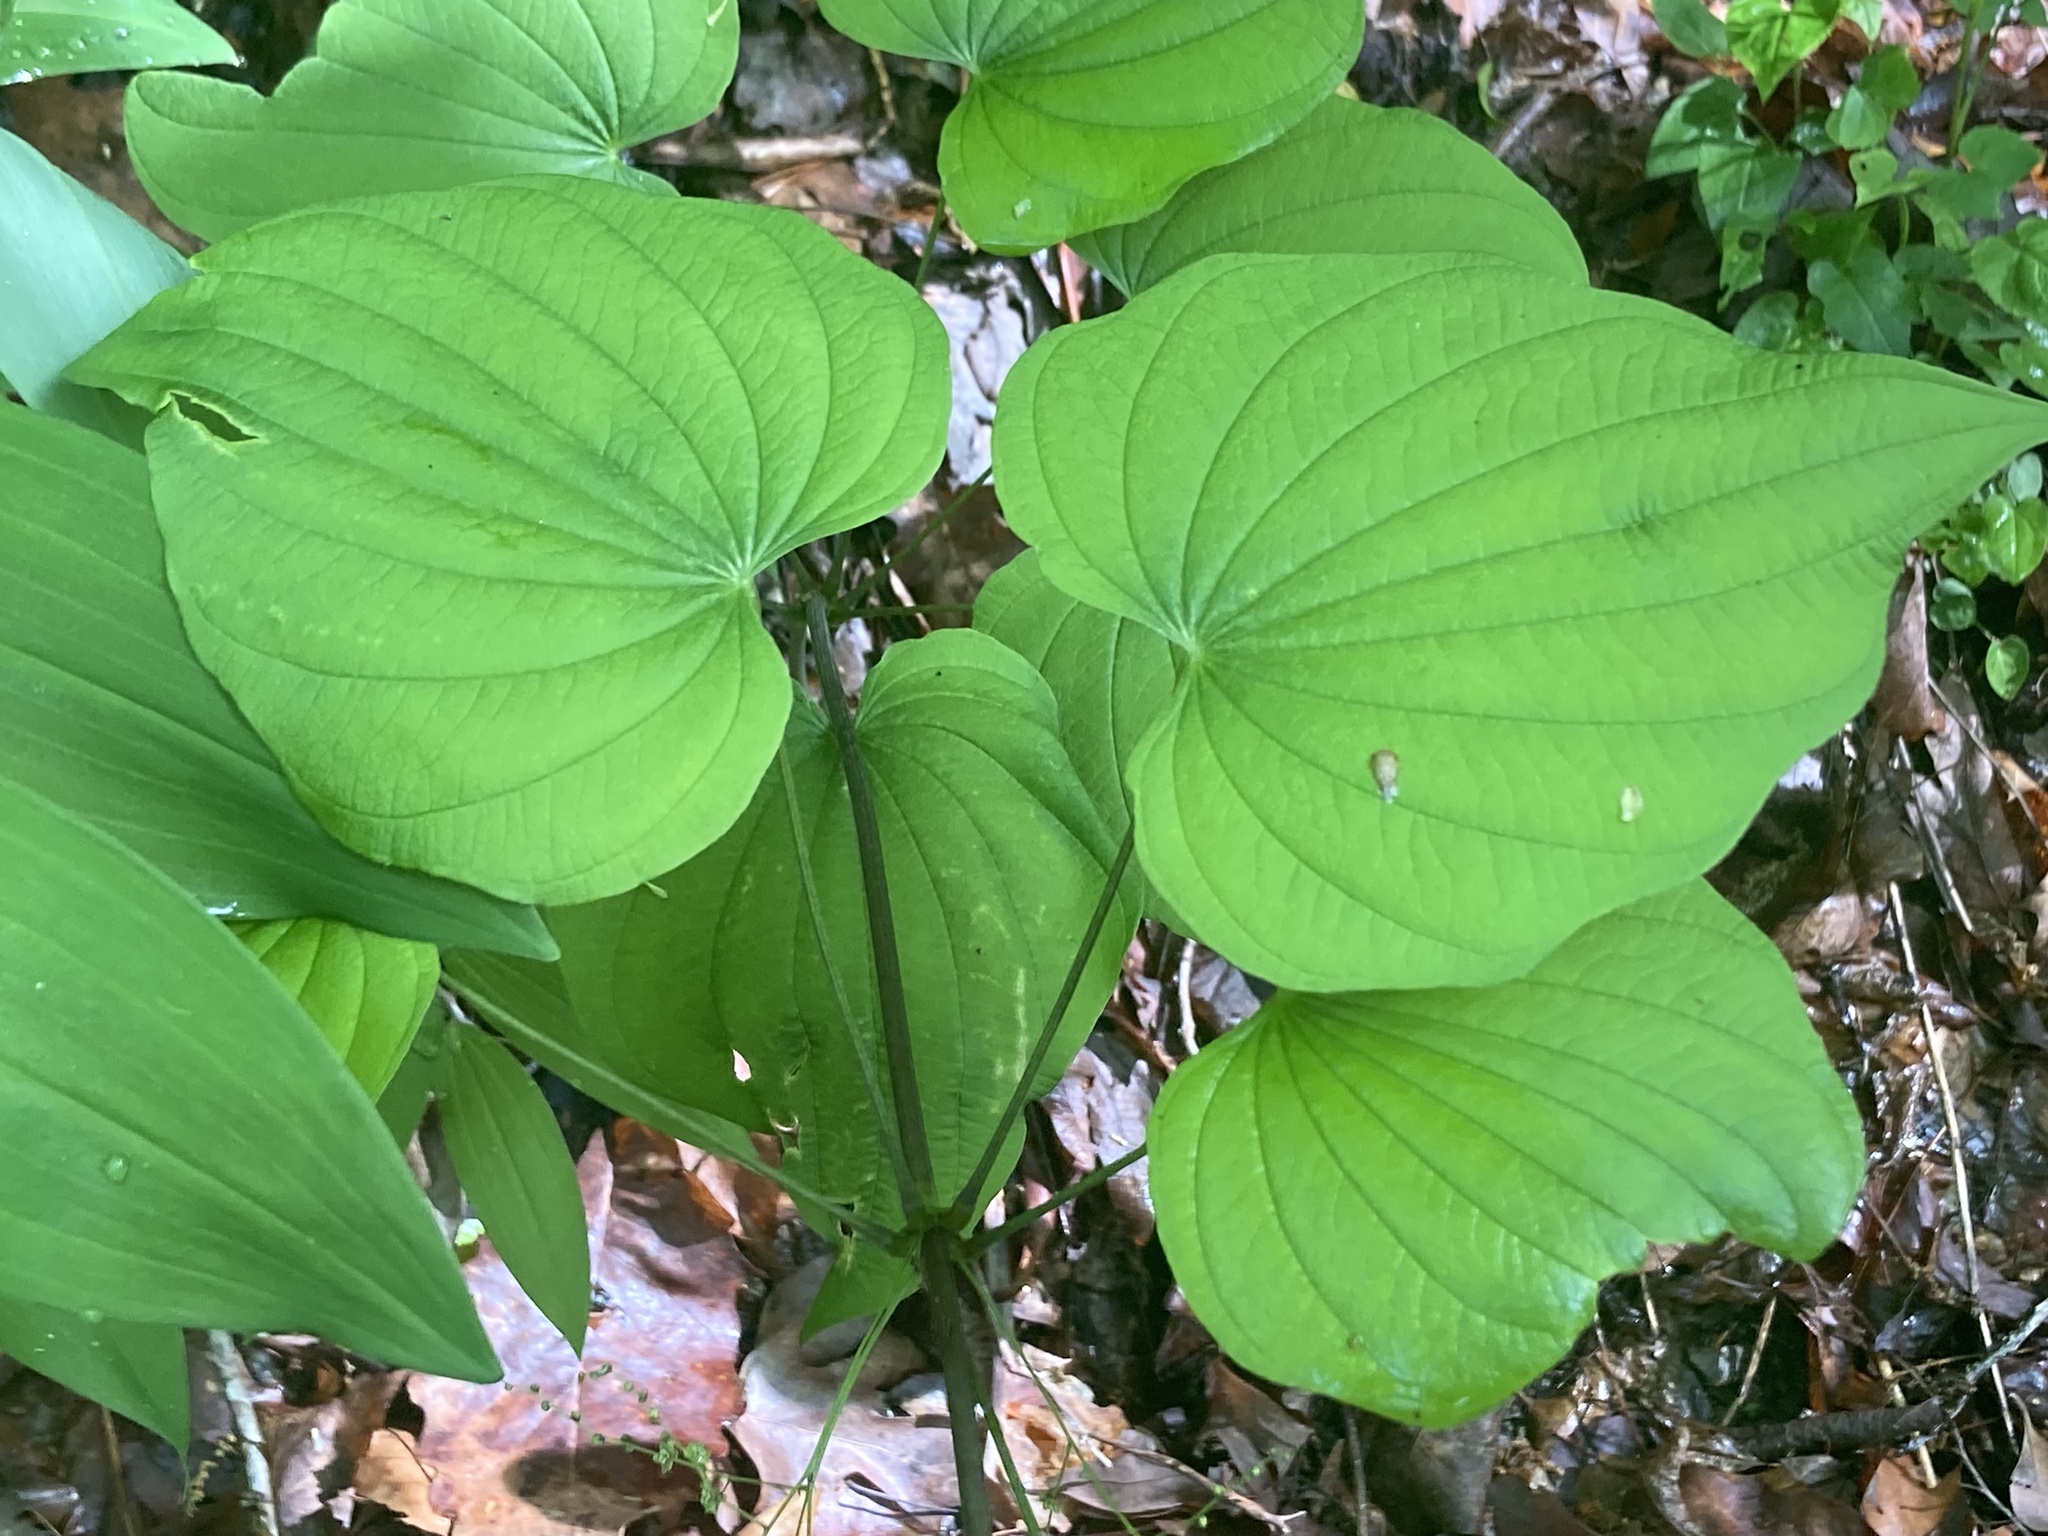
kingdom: Plantae
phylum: Tracheophyta
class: Liliopsida
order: Dioscoreales
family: Dioscoreaceae
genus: Dioscorea
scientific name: Dioscorea villosa
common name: Wild yam
